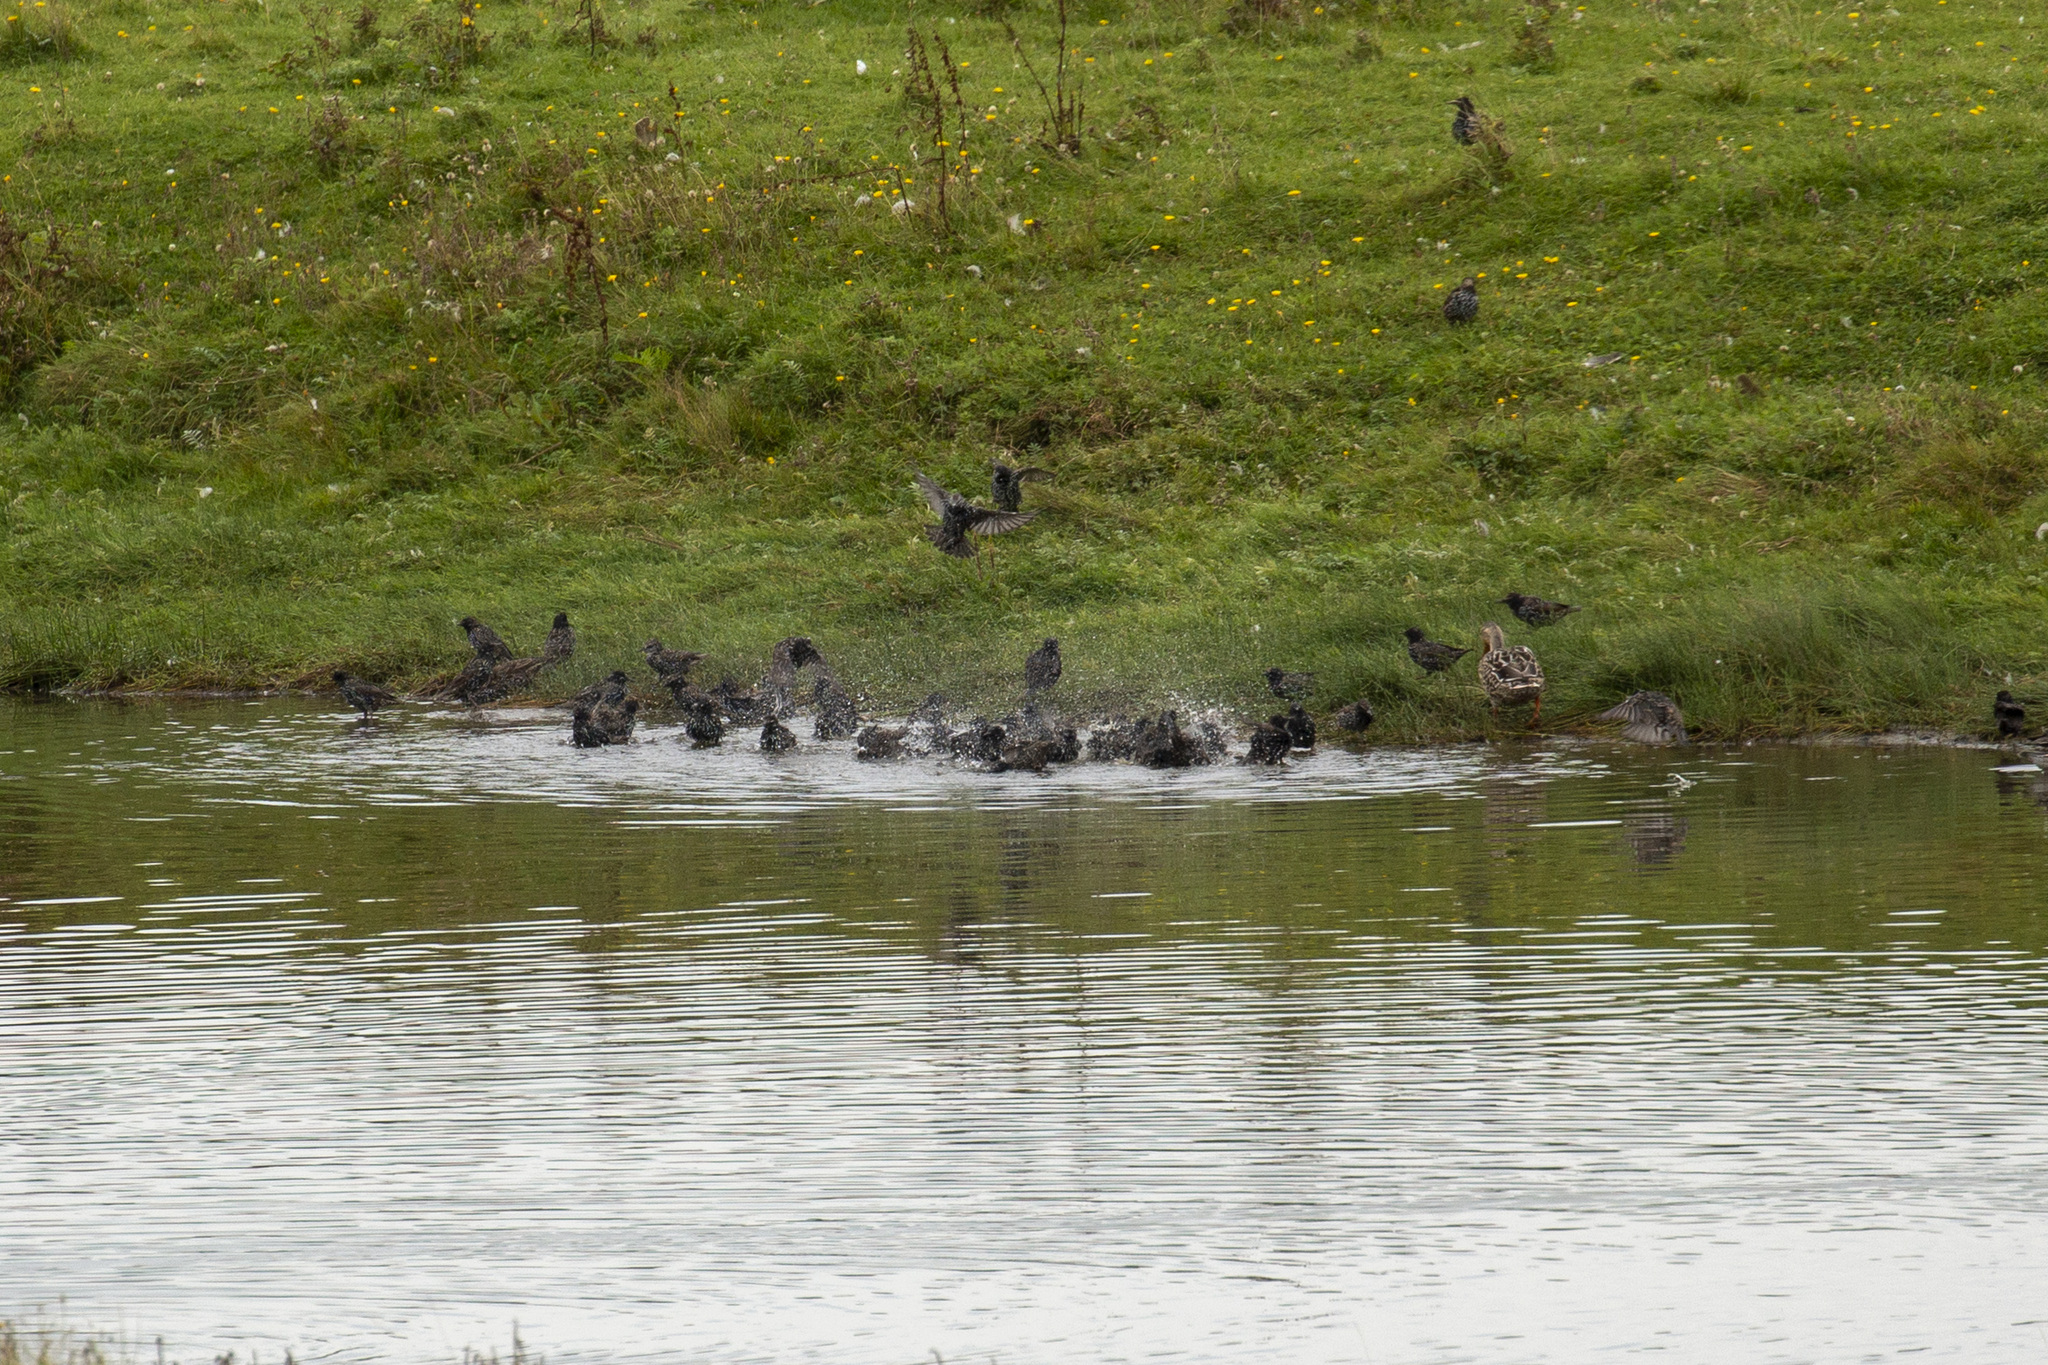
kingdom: Animalia
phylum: Chordata
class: Aves
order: Passeriformes
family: Sturnidae
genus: Sturnus
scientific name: Sturnus vulgaris
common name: Common starling
